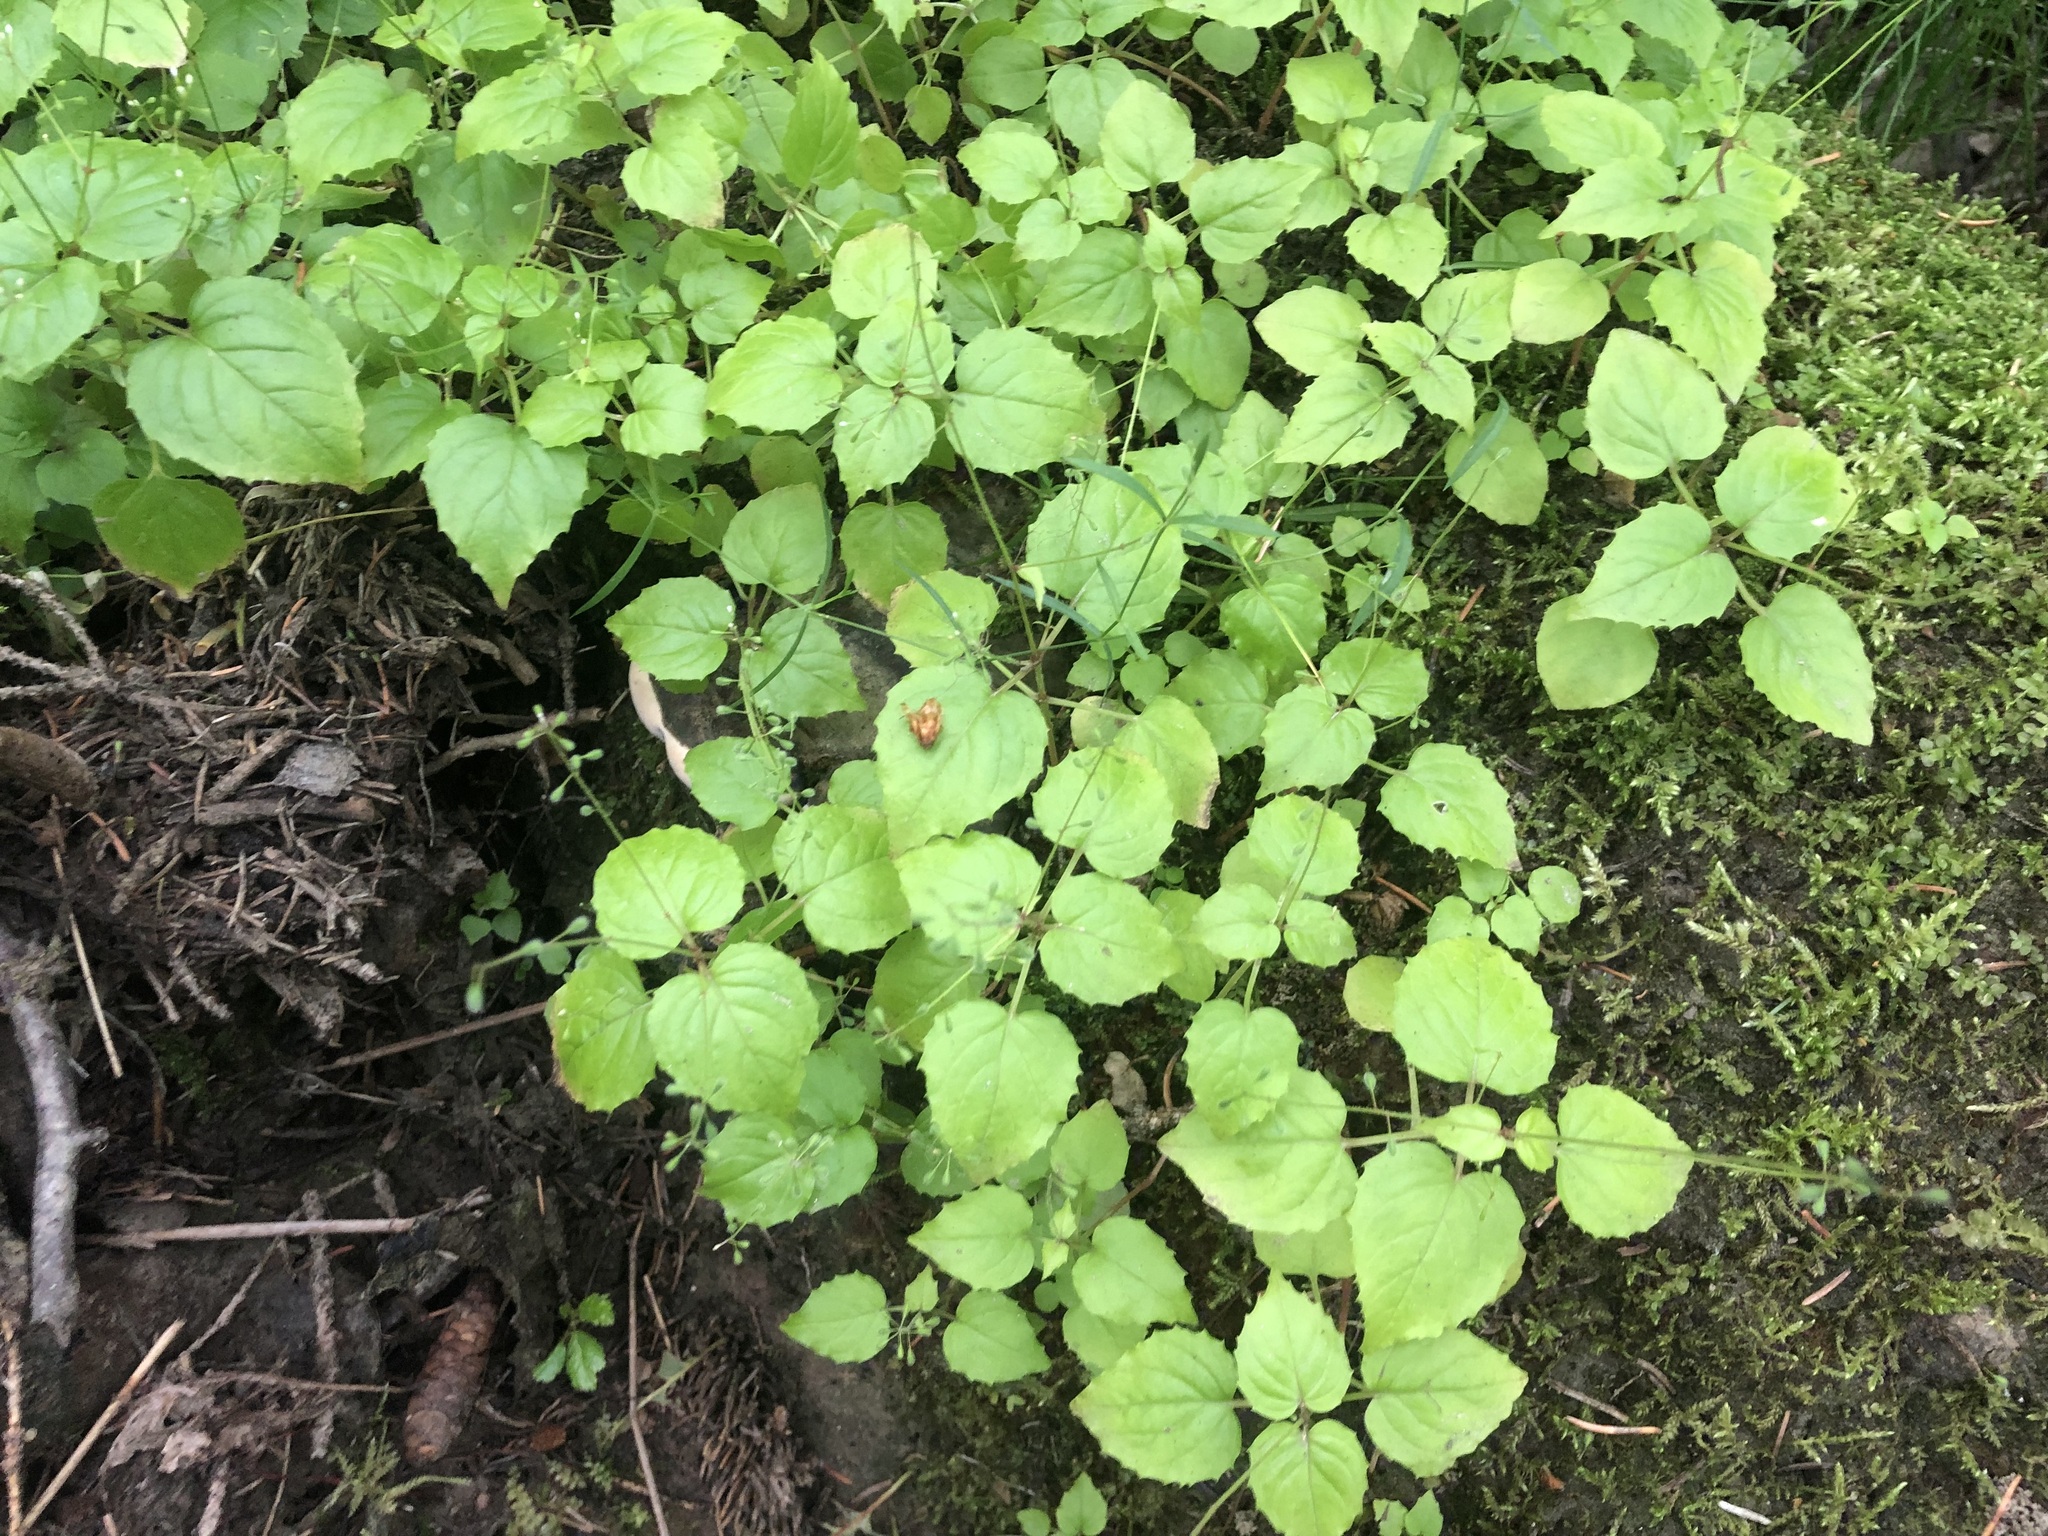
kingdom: Plantae
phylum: Tracheophyta
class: Magnoliopsida
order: Myrtales
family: Onagraceae
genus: Circaea
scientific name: Circaea alpina
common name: Alpine enchanter's-nightshade
